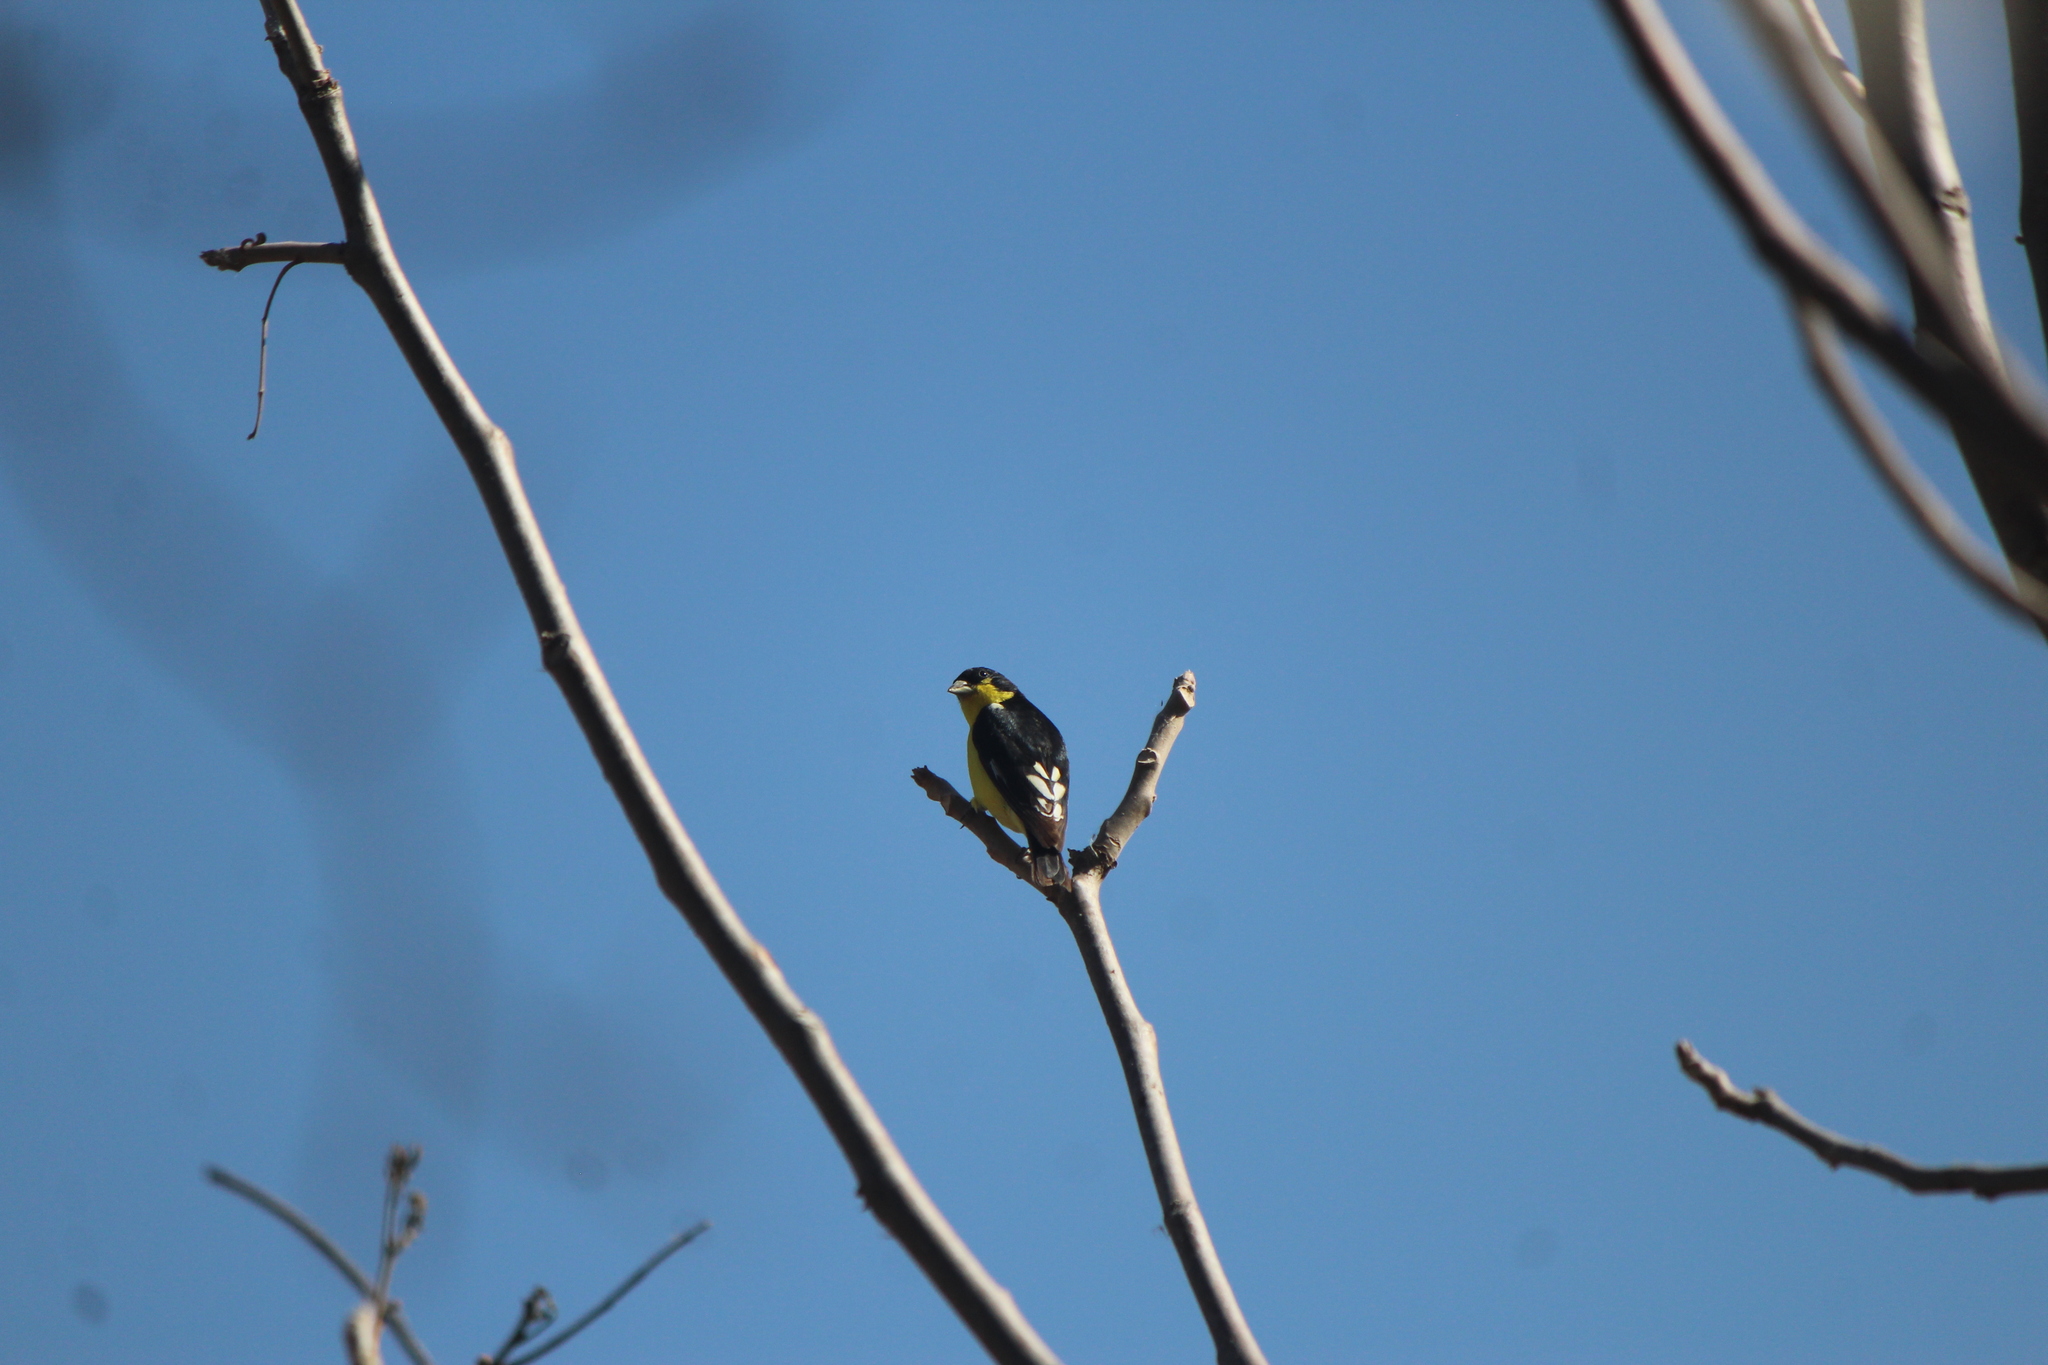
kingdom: Animalia
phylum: Chordata
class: Aves
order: Passeriformes
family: Fringillidae
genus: Spinus
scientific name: Spinus psaltria
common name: Lesser goldfinch
